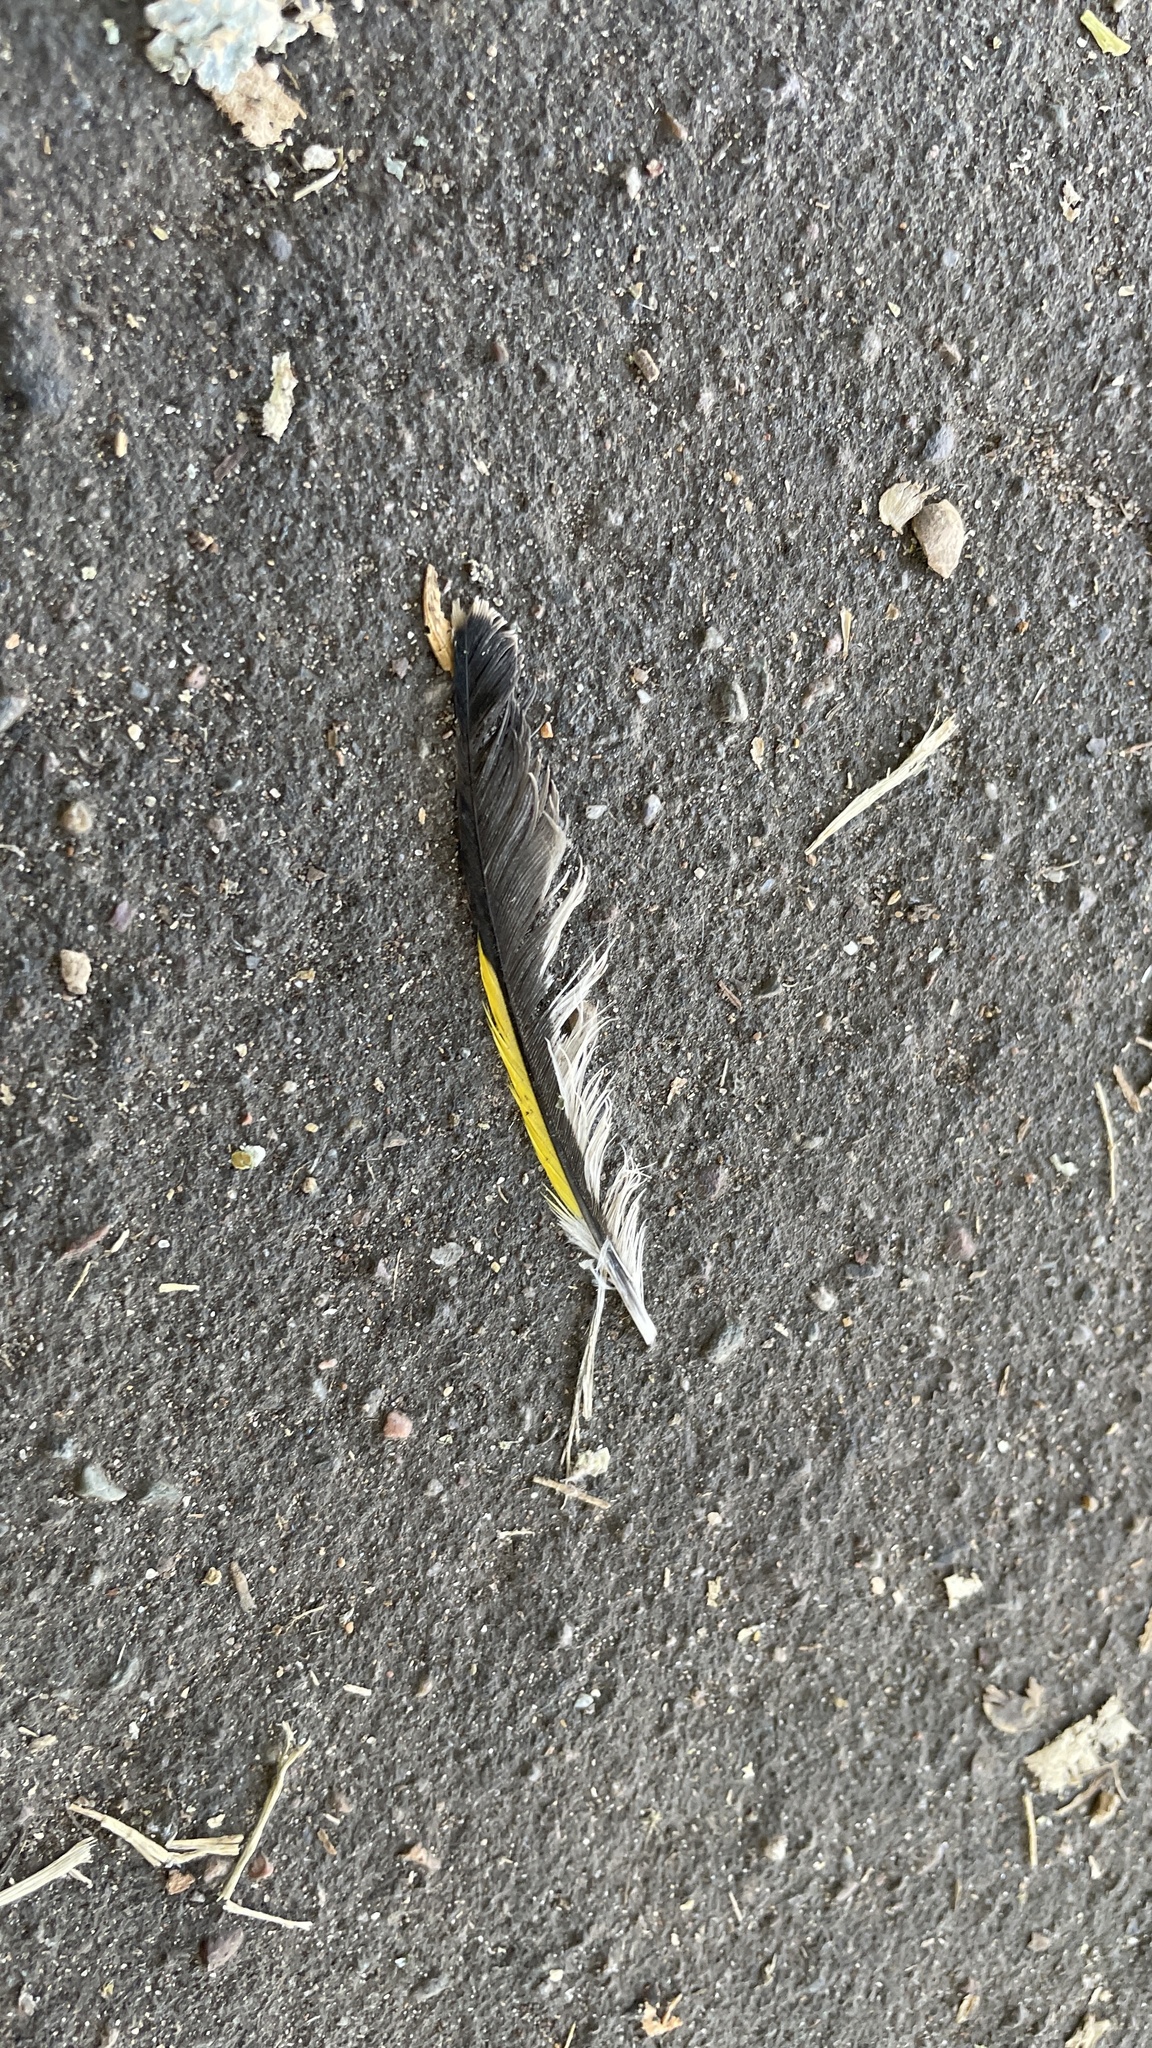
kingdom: Animalia
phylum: Chordata
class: Aves
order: Passeriformes
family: Fringillidae
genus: Carduelis
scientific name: Carduelis carduelis
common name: European goldfinch
